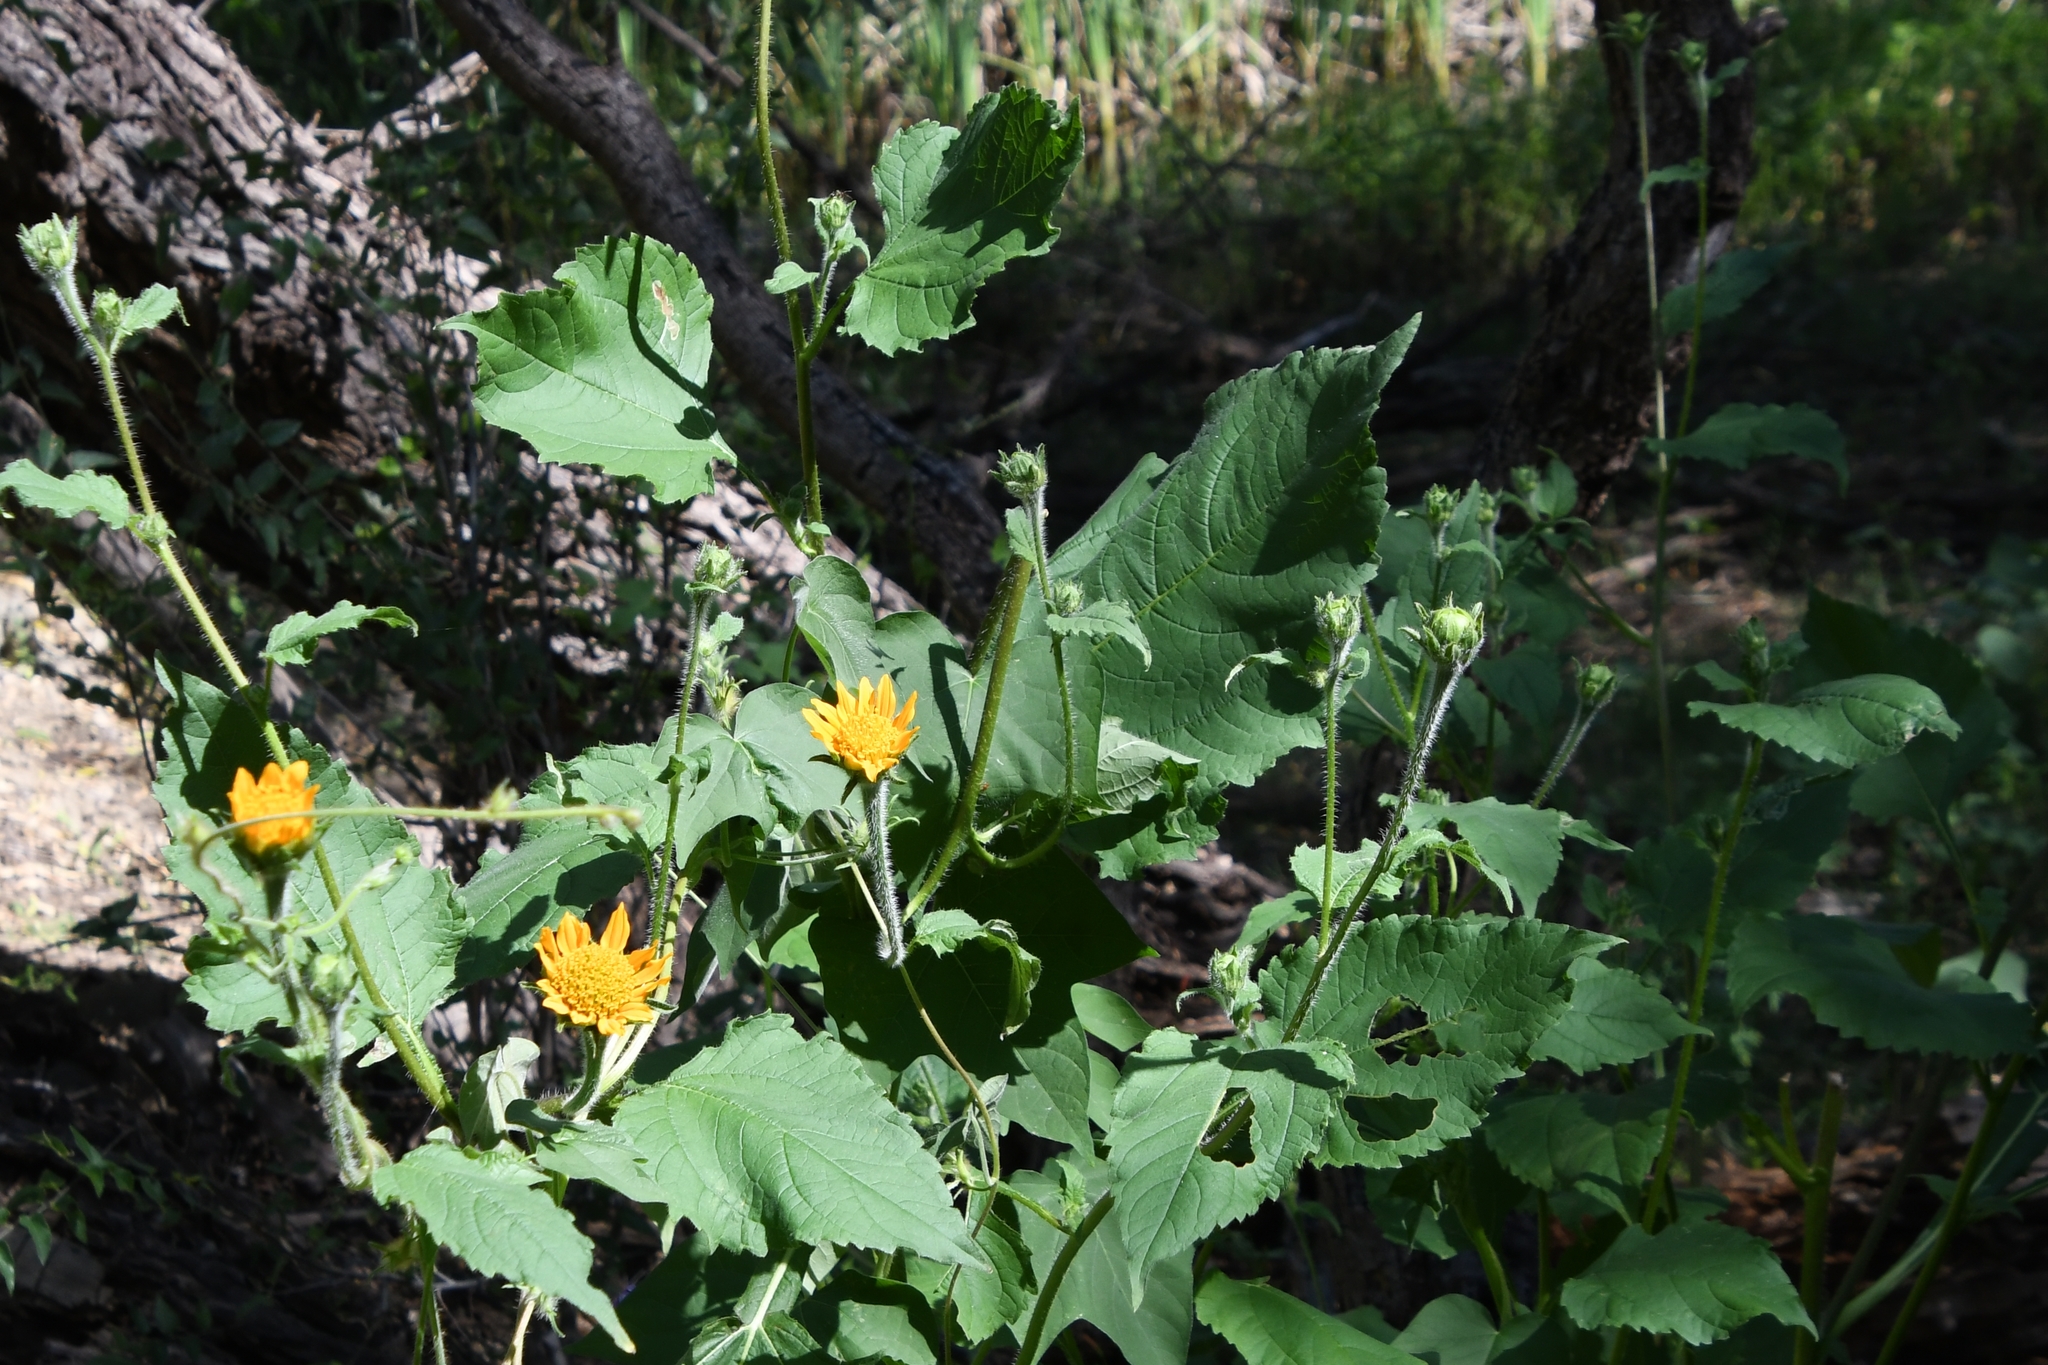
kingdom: Plantae
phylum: Tracheophyta
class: Magnoliopsida
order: Asterales
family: Asteraceae
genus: Tithonia
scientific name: Tithonia thurberi
